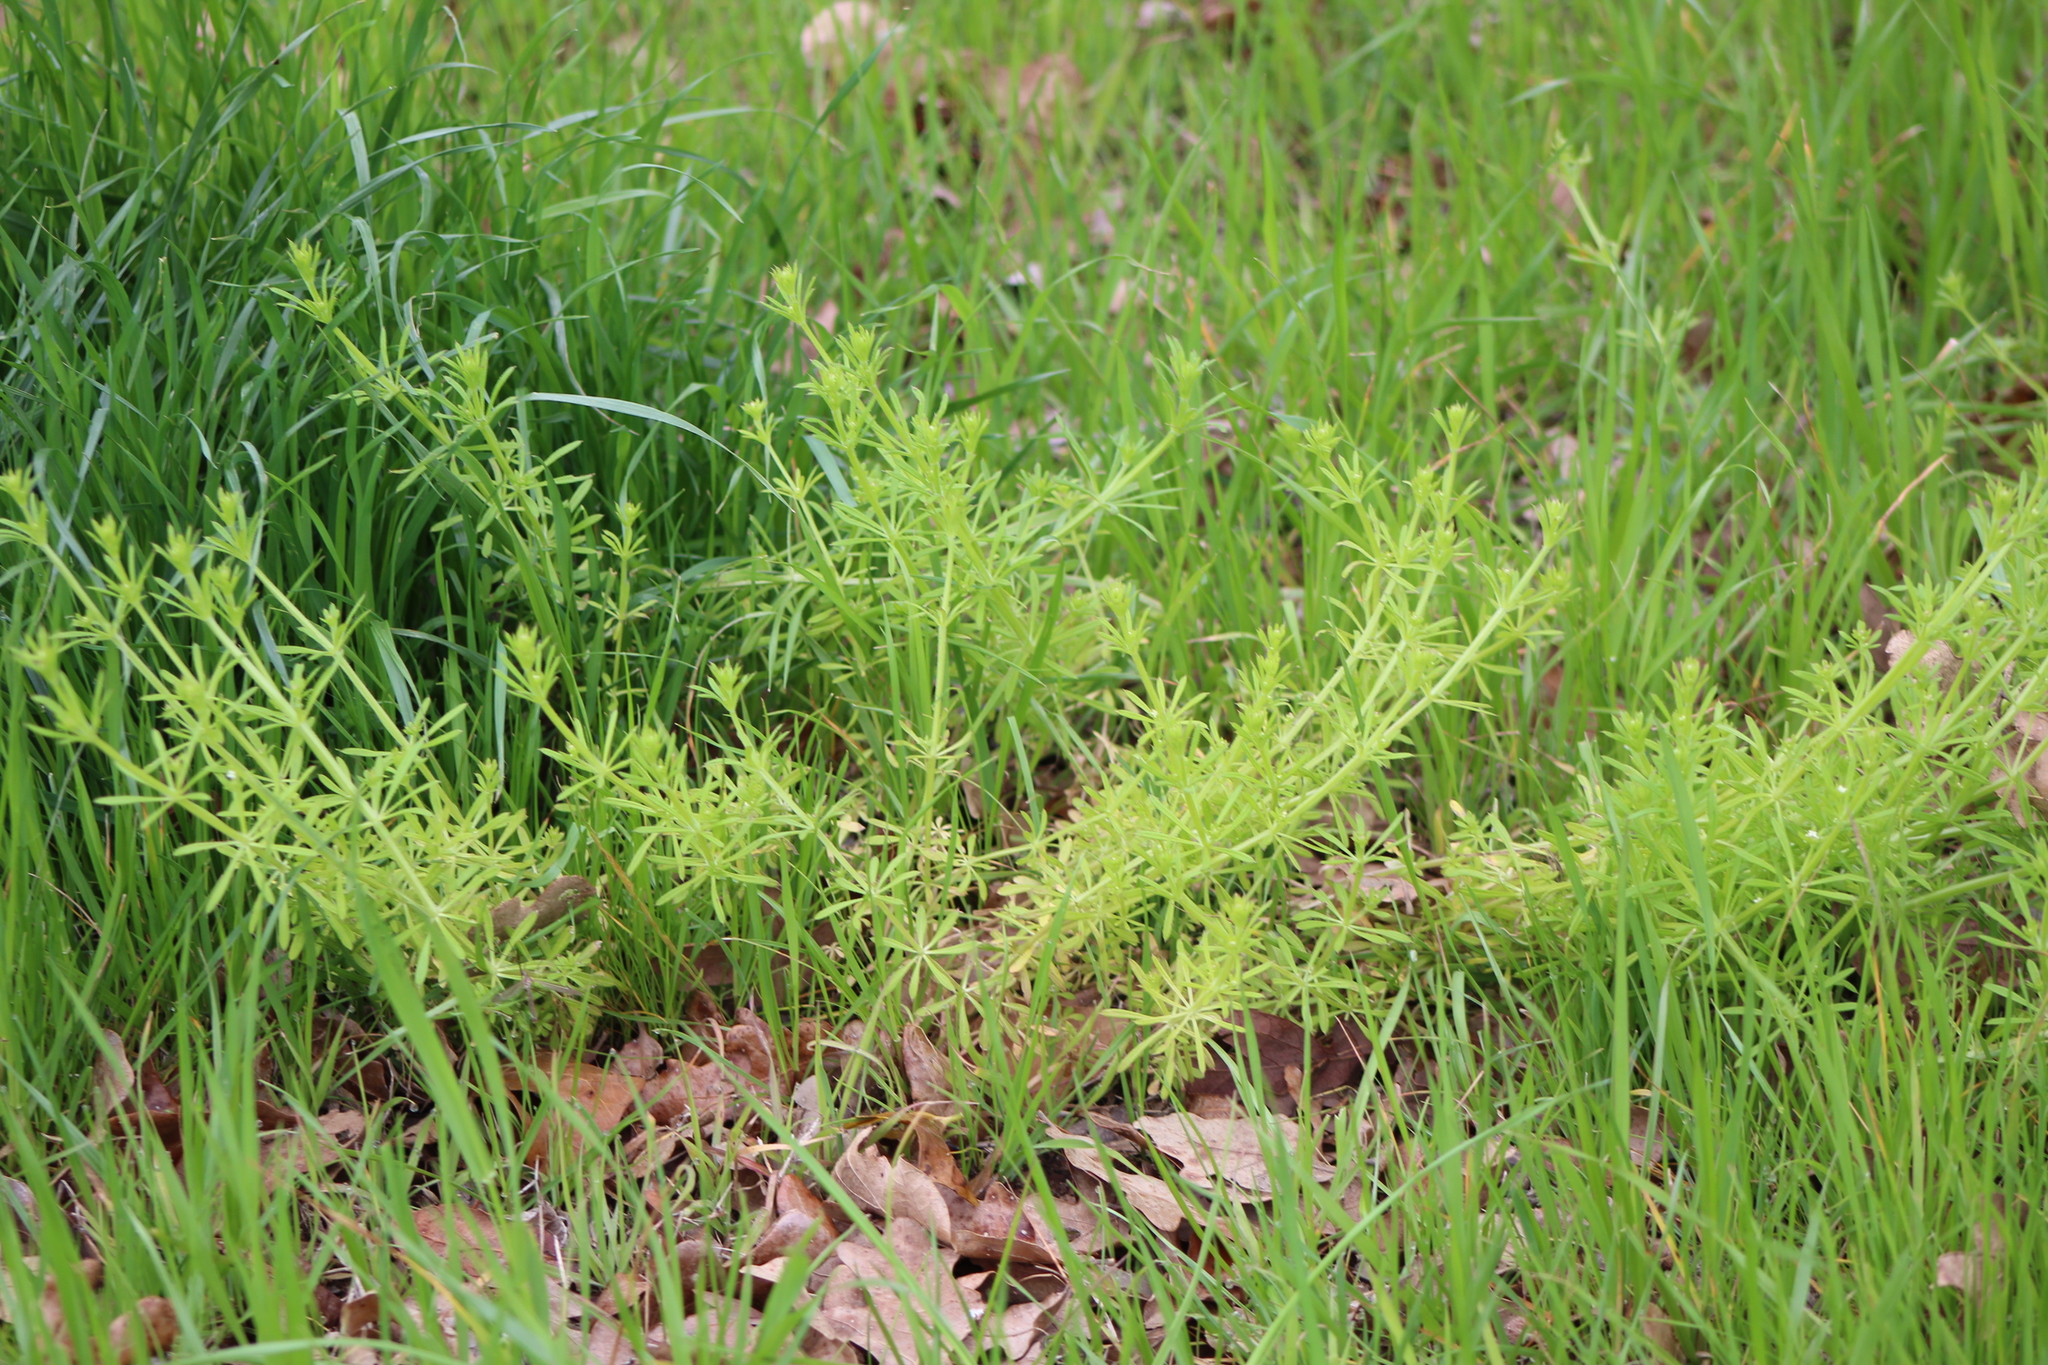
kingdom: Plantae
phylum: Tracheophyta
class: Magnoliopsida
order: Gentianales
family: Rubiaceae
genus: Galium
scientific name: Galium aparine
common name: Cleavers
